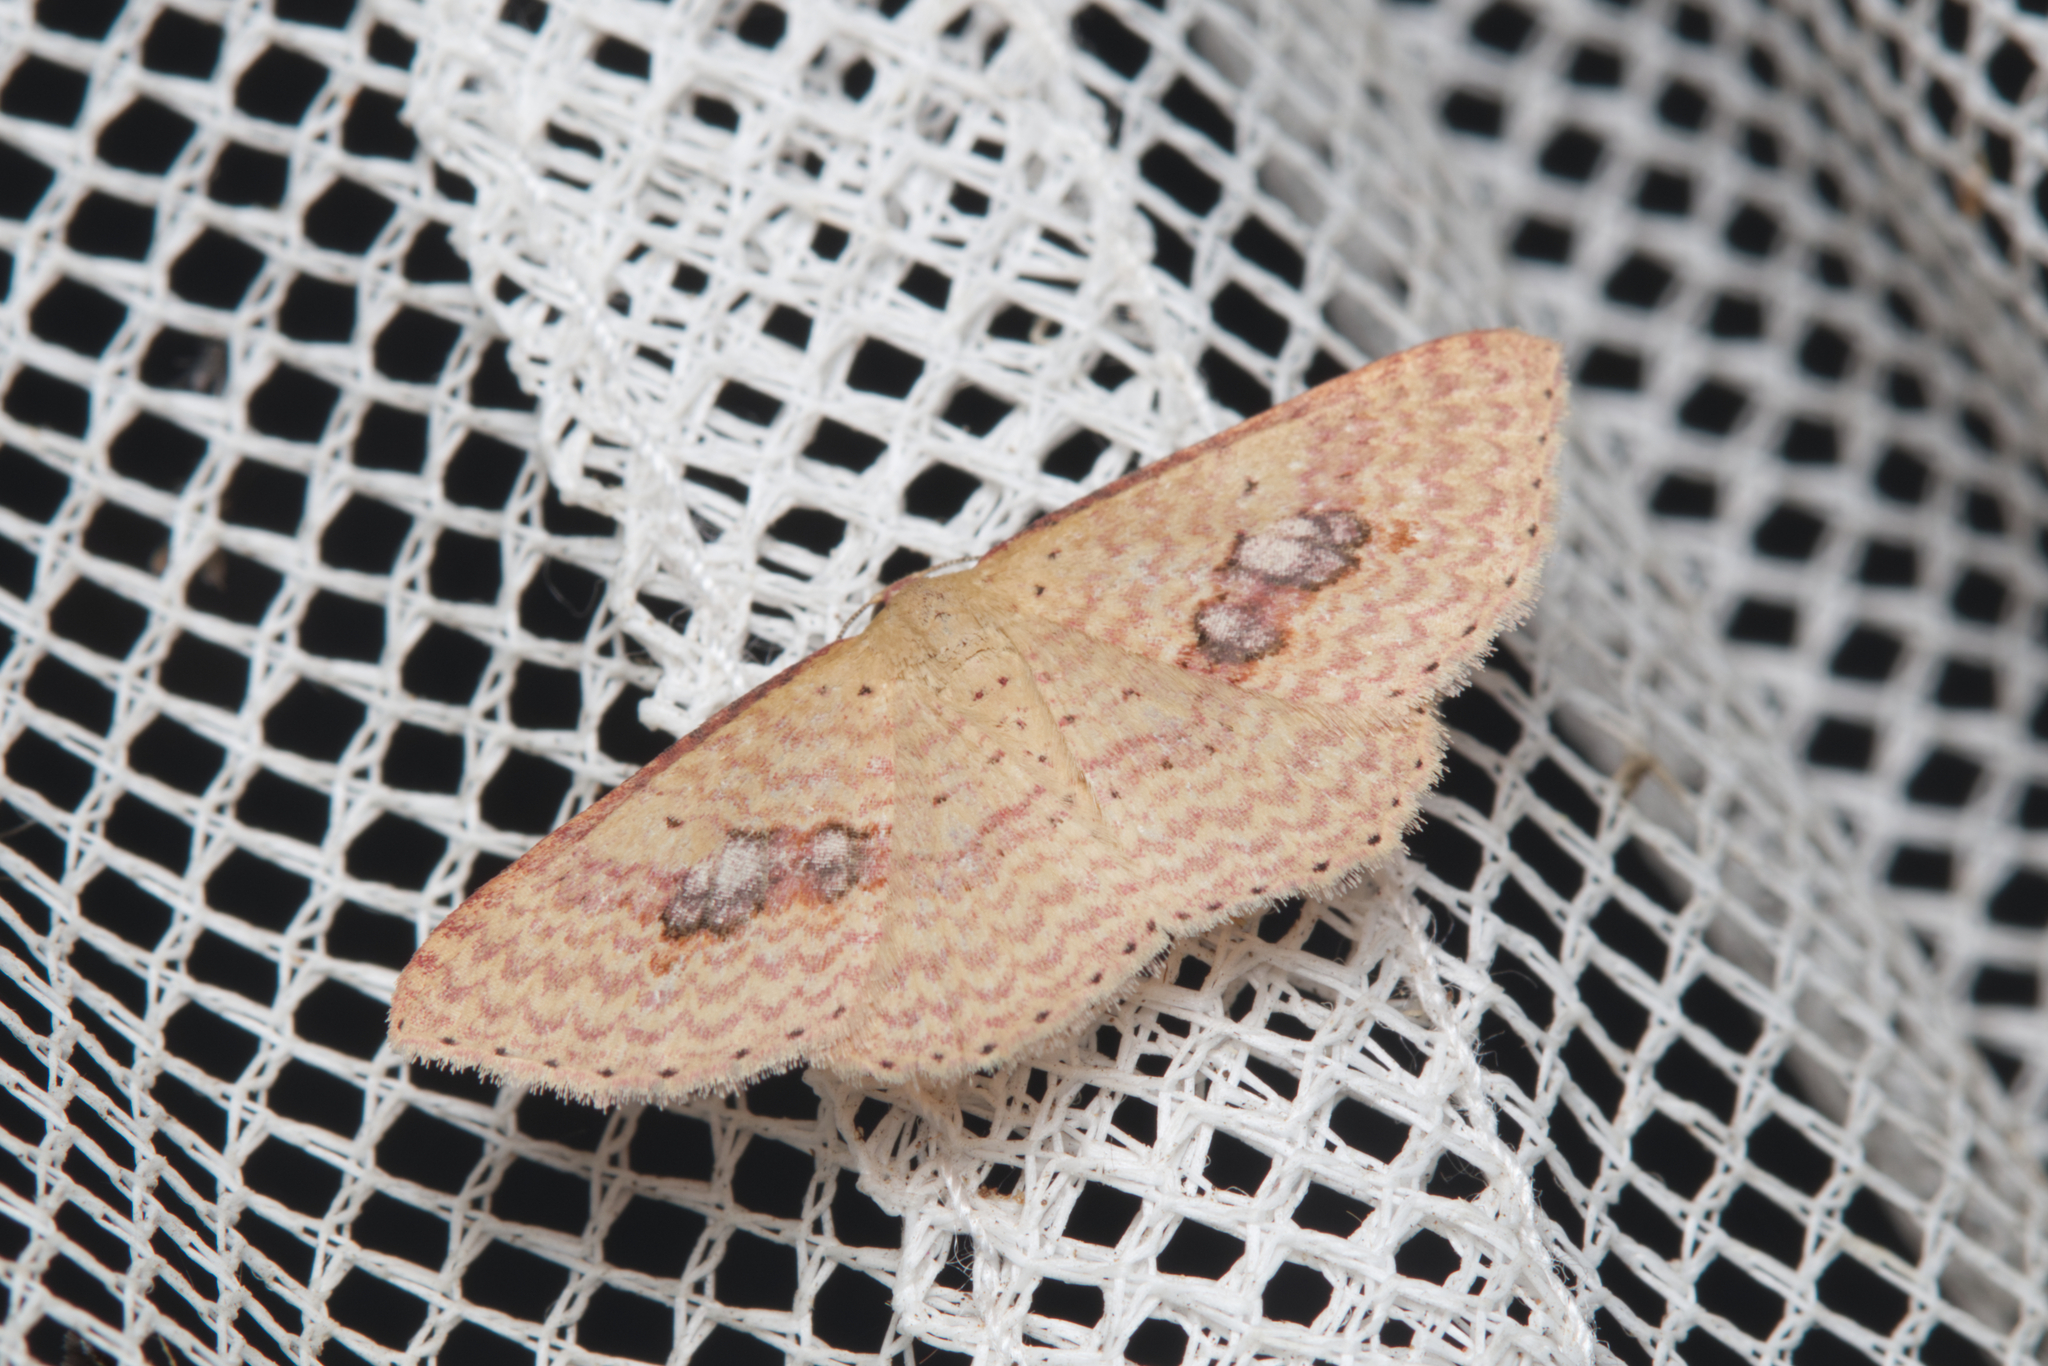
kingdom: Animalia
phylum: Arthropoda
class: Insecta
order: Lepidoptera
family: Geometridae
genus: Epicyme
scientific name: Epicyme rubropunctaria
